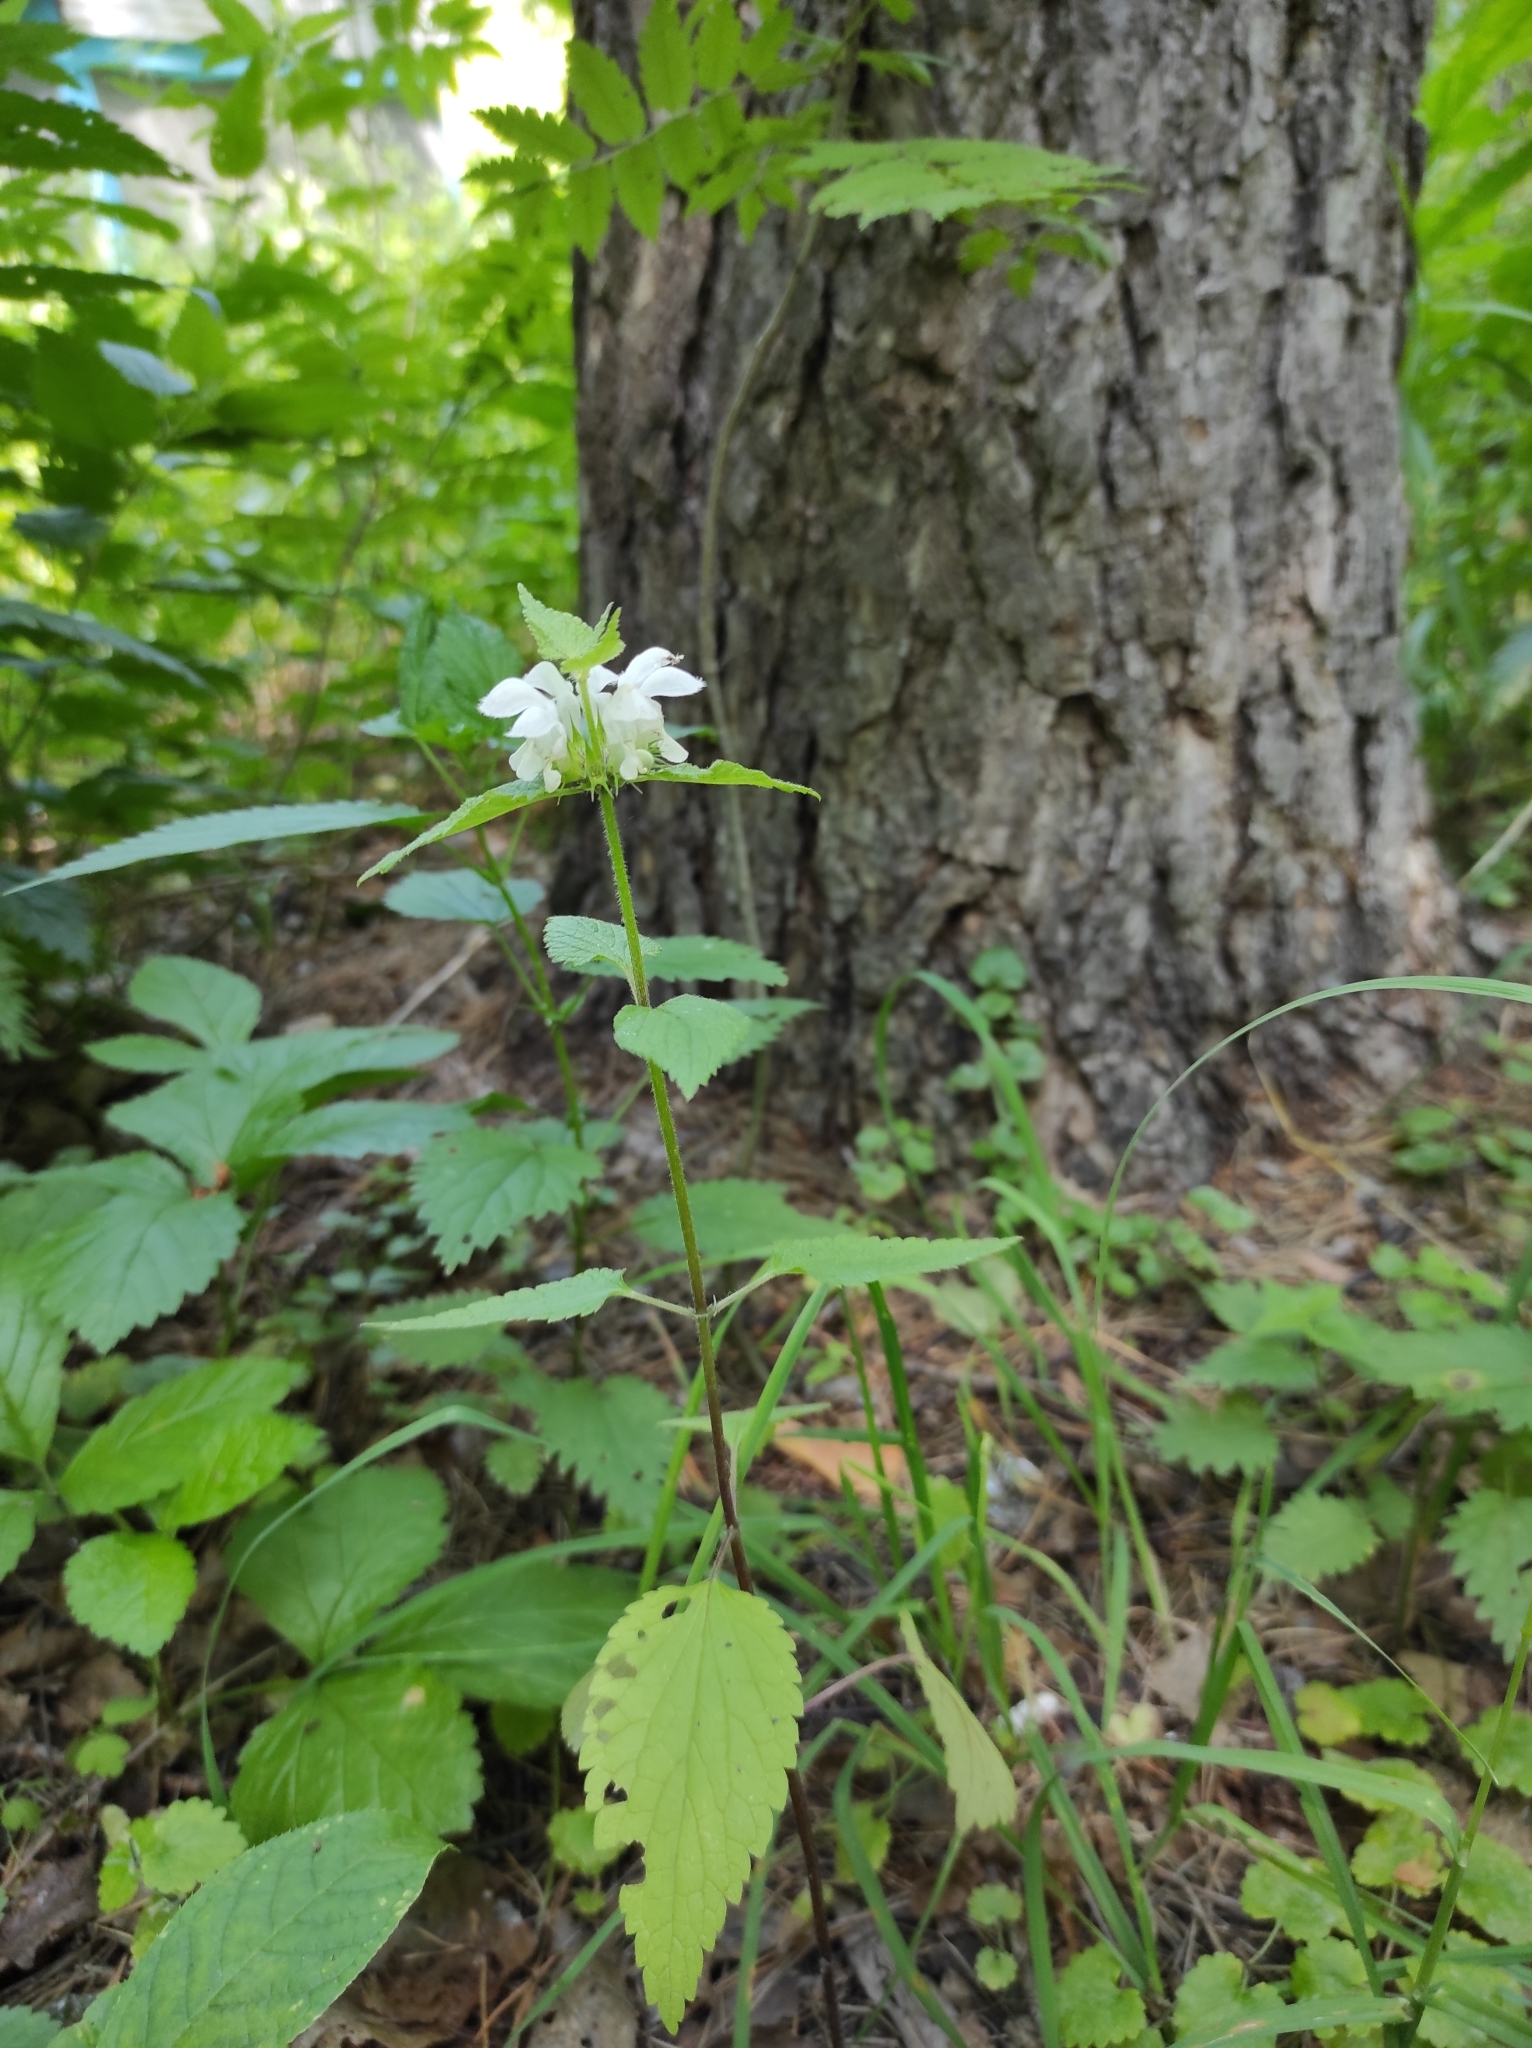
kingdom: Plantae
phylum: Tracheophyta
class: Magnoliopsida
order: Lamiales
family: Lamiaceae
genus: Lamium
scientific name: Lamium album
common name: White dead-nettle
